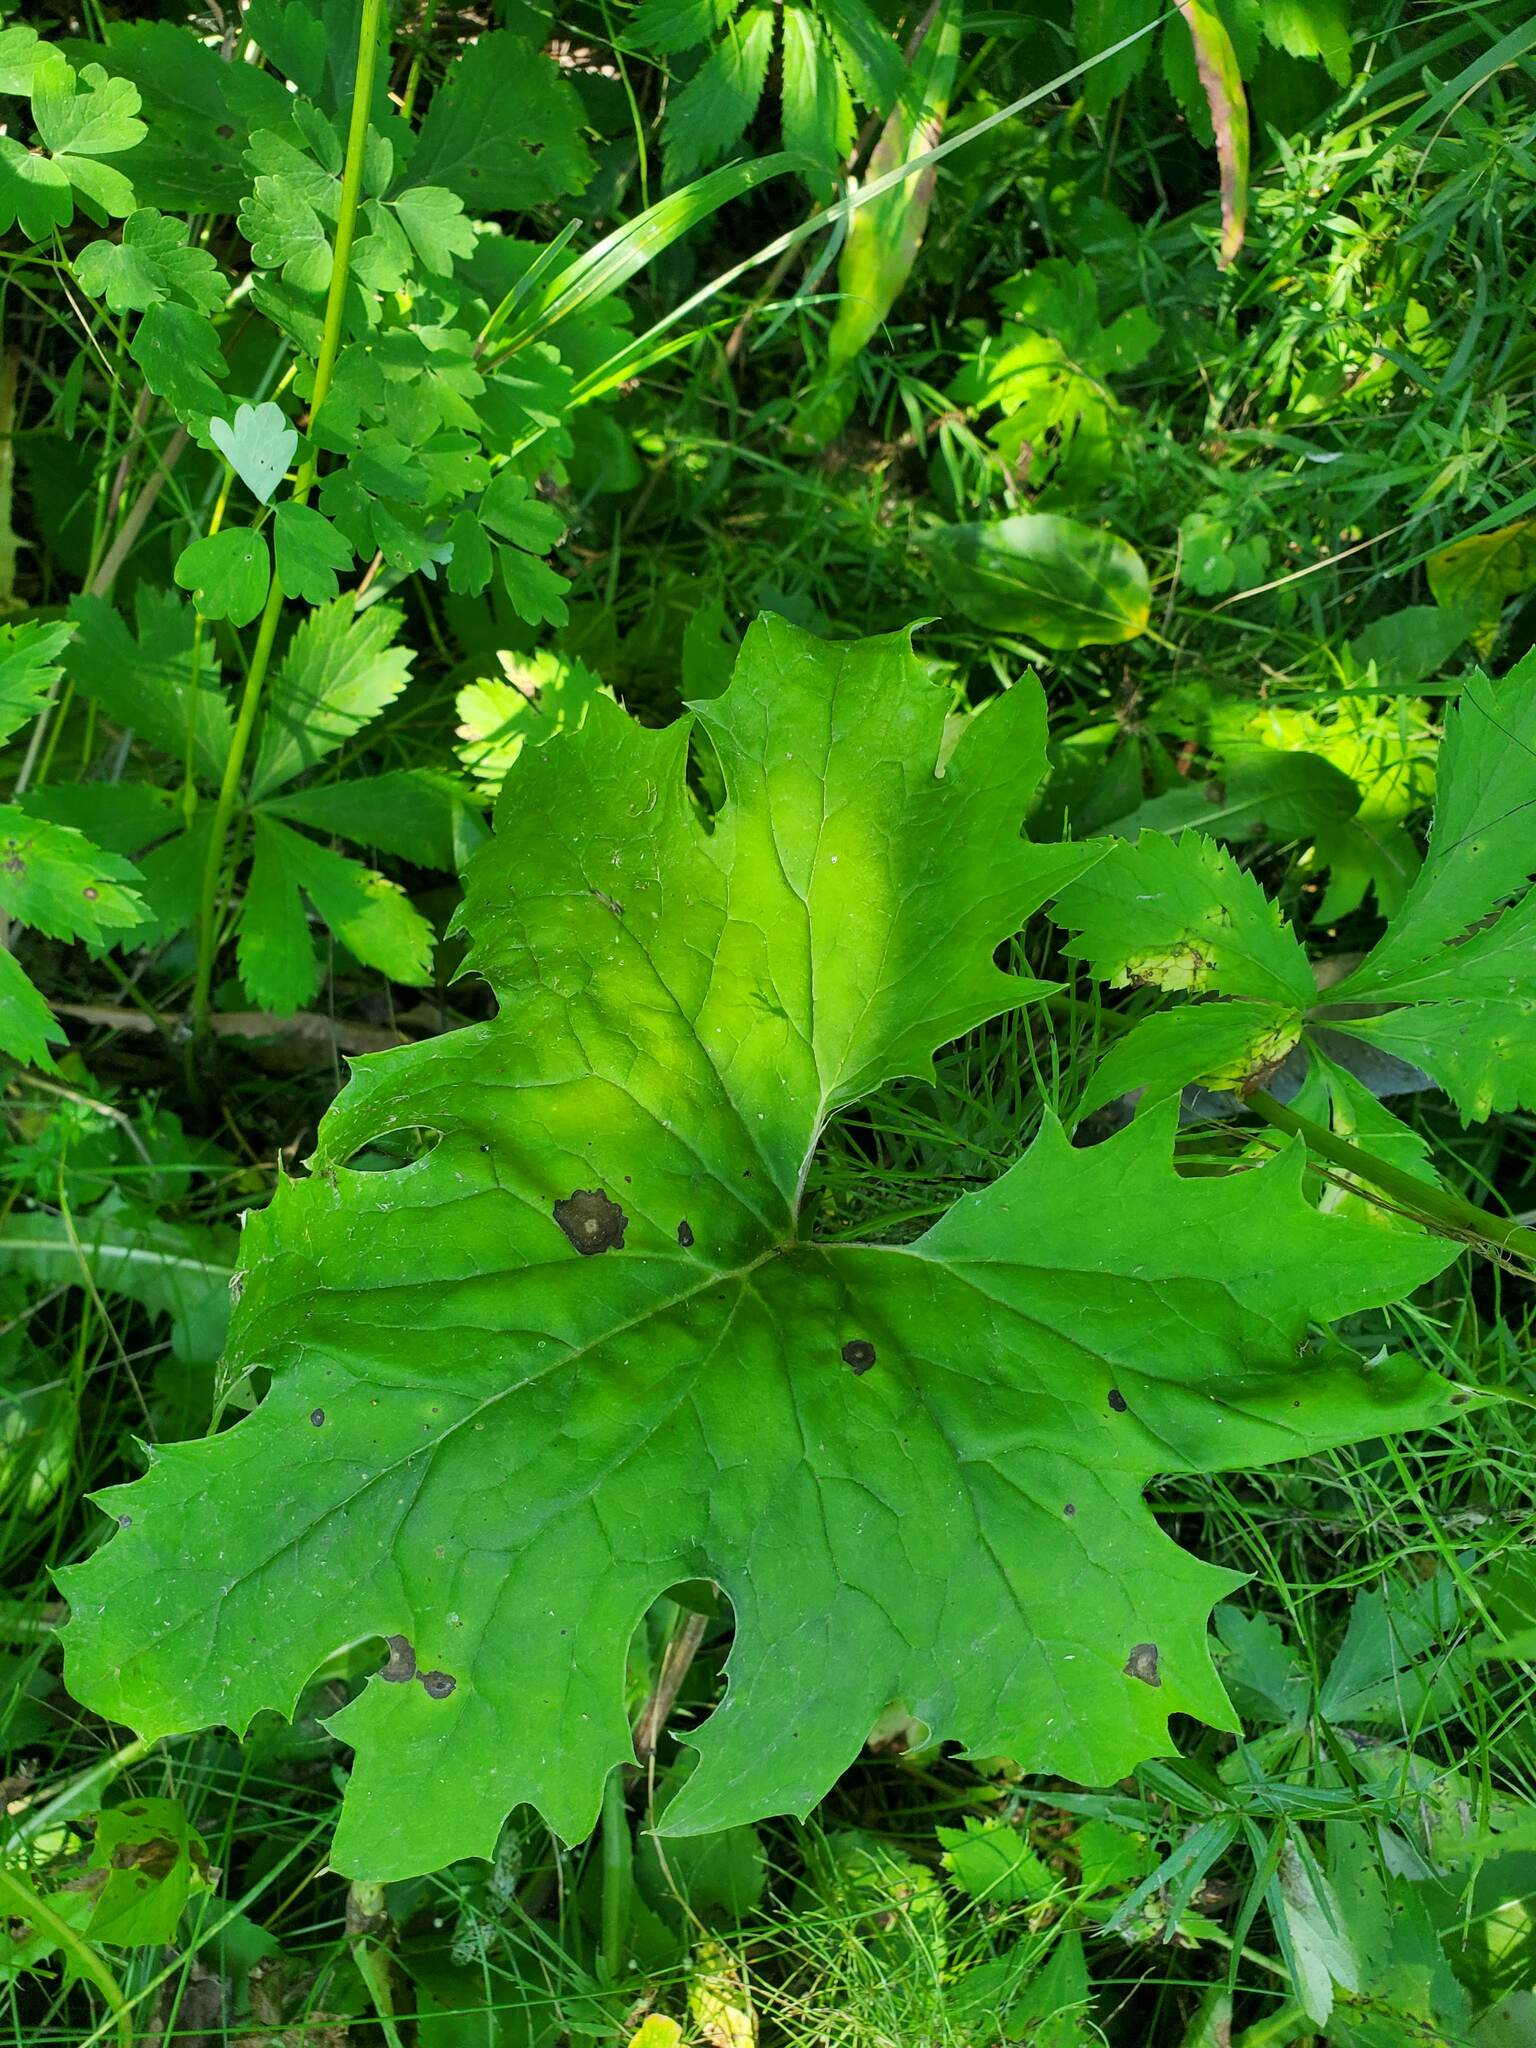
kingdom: Plantae
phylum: Tracheophyta
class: Magnoliopsida
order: Asterales
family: Asteraceae
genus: Petasites
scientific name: Petasites frigidus
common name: Arctic butterbur
